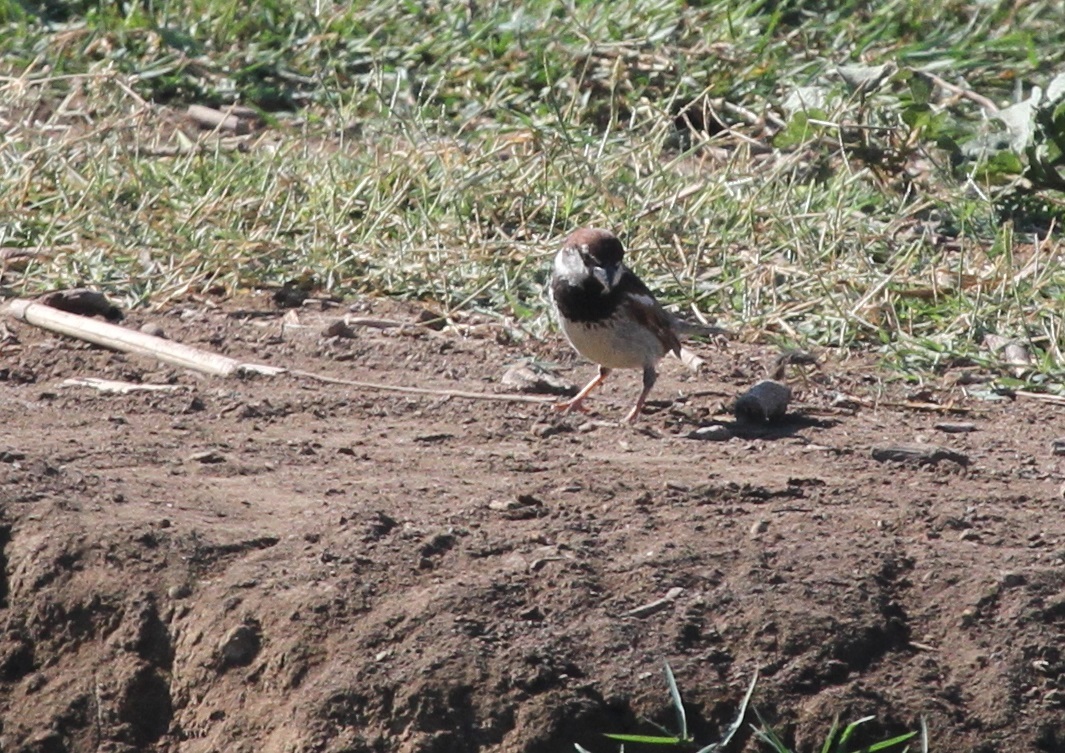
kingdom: Animalia
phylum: Chordata
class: Aves
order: Passeriformes
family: Passeridae
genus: Passer
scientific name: Passer hispaniolensis
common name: Spanish sparrow
